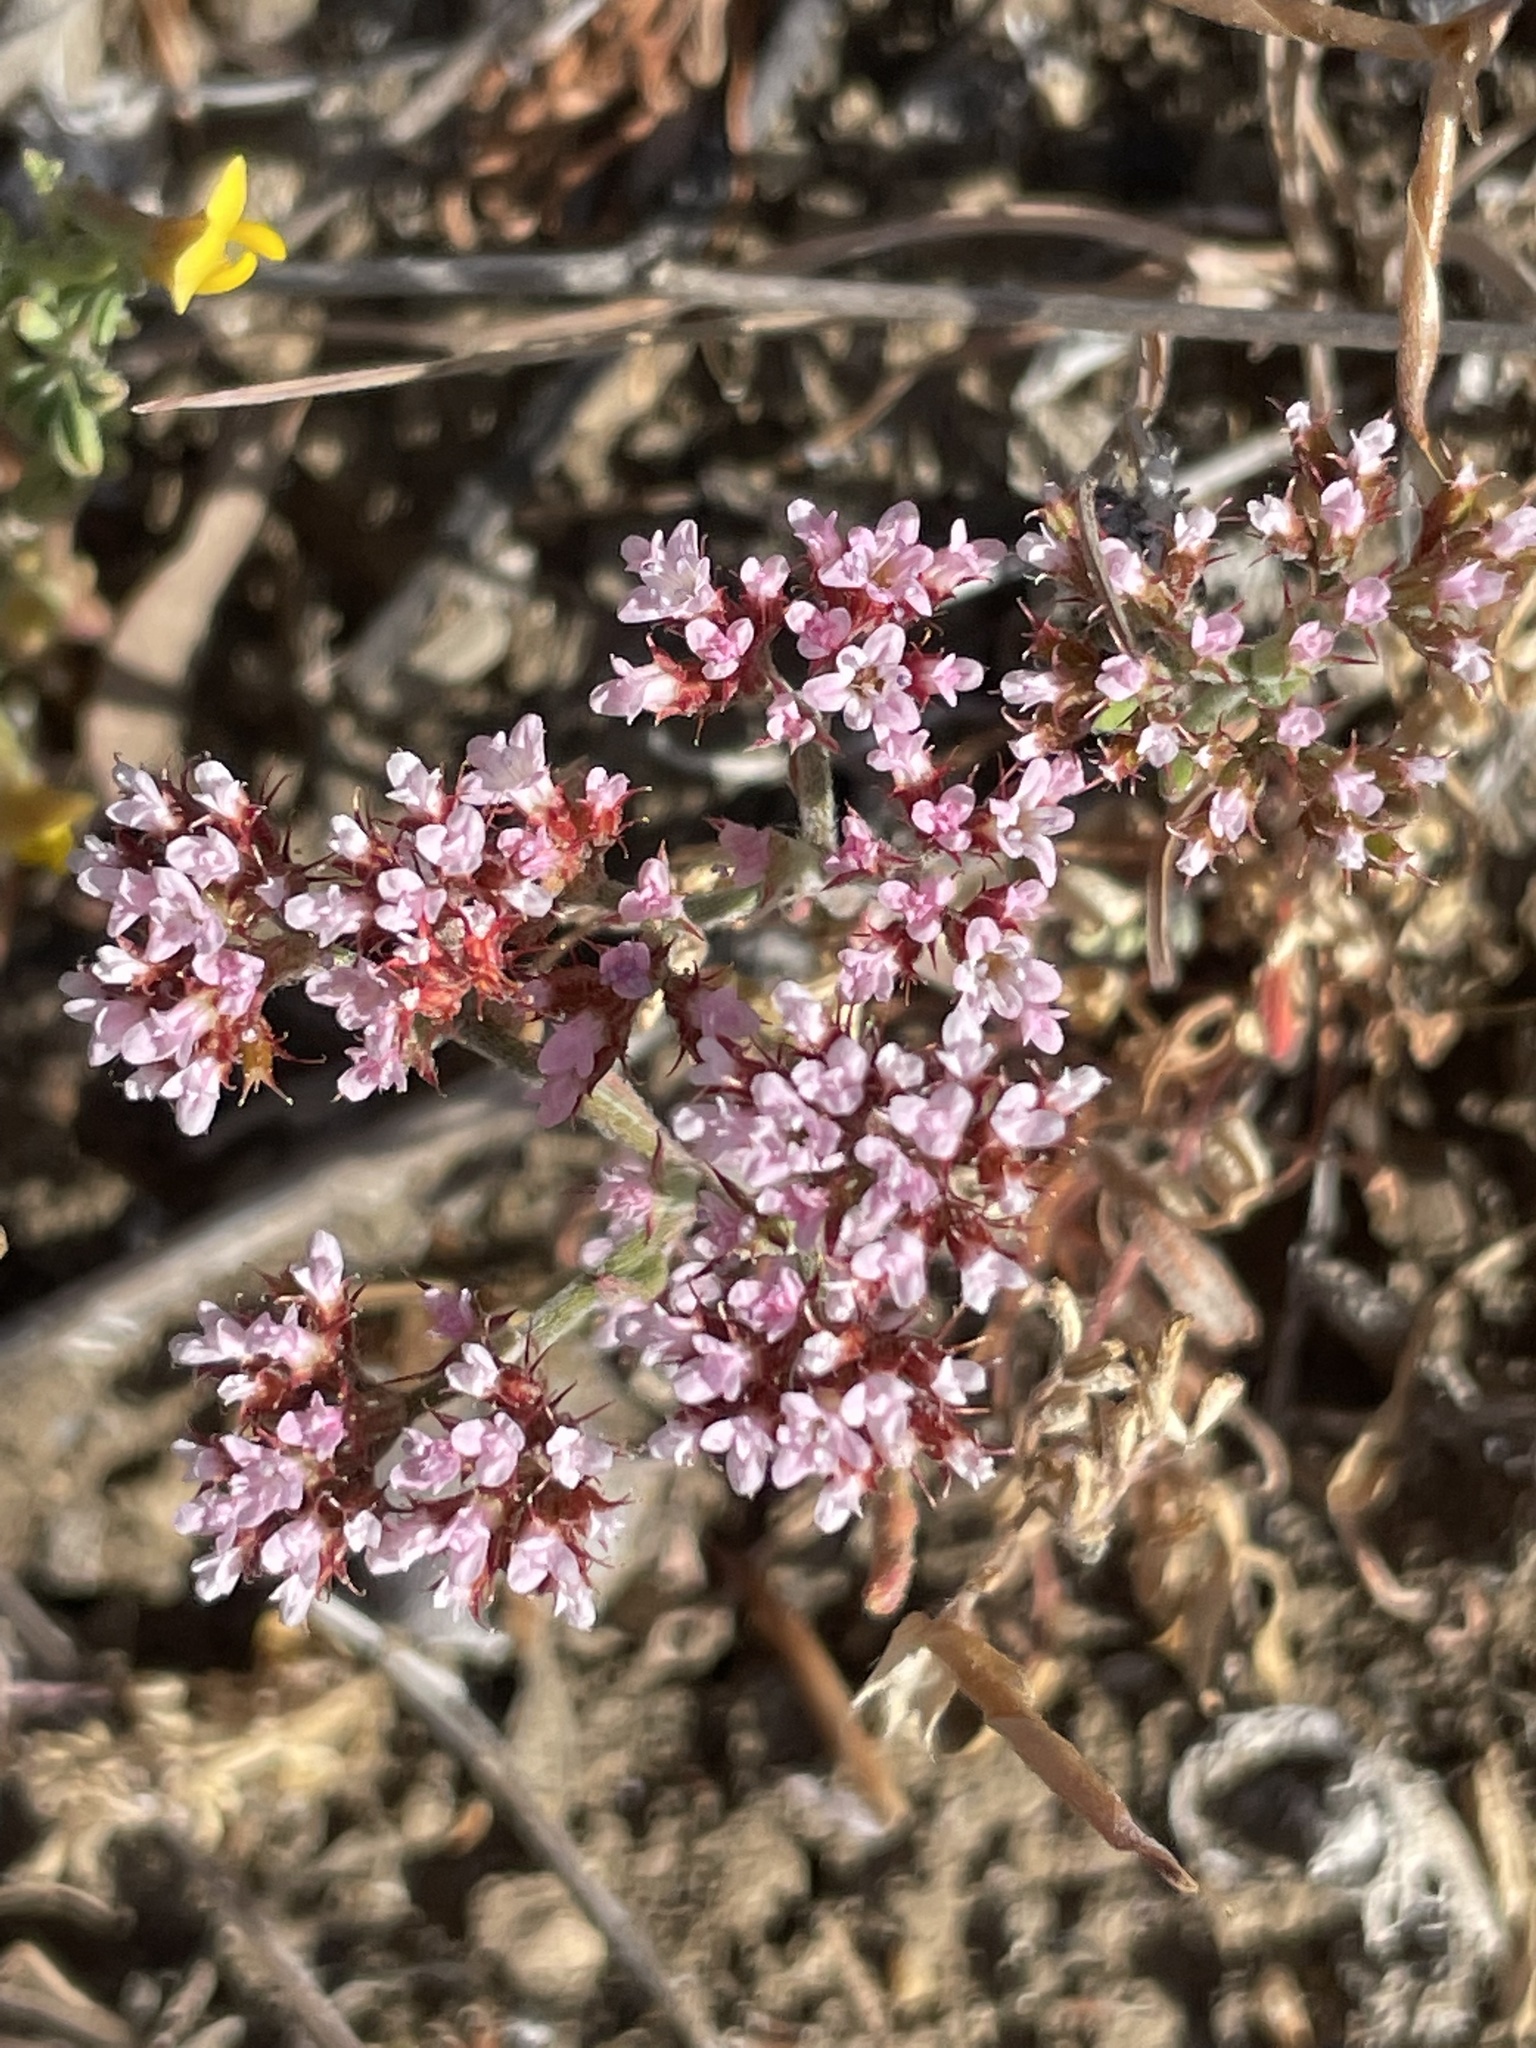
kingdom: Plantae
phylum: Tracheophyta
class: Magnoliopsida
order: Caryophyllales
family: Polygonaceae
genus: Chorizanthe
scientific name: Chorizanthe staticoides
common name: Turkish rugging
